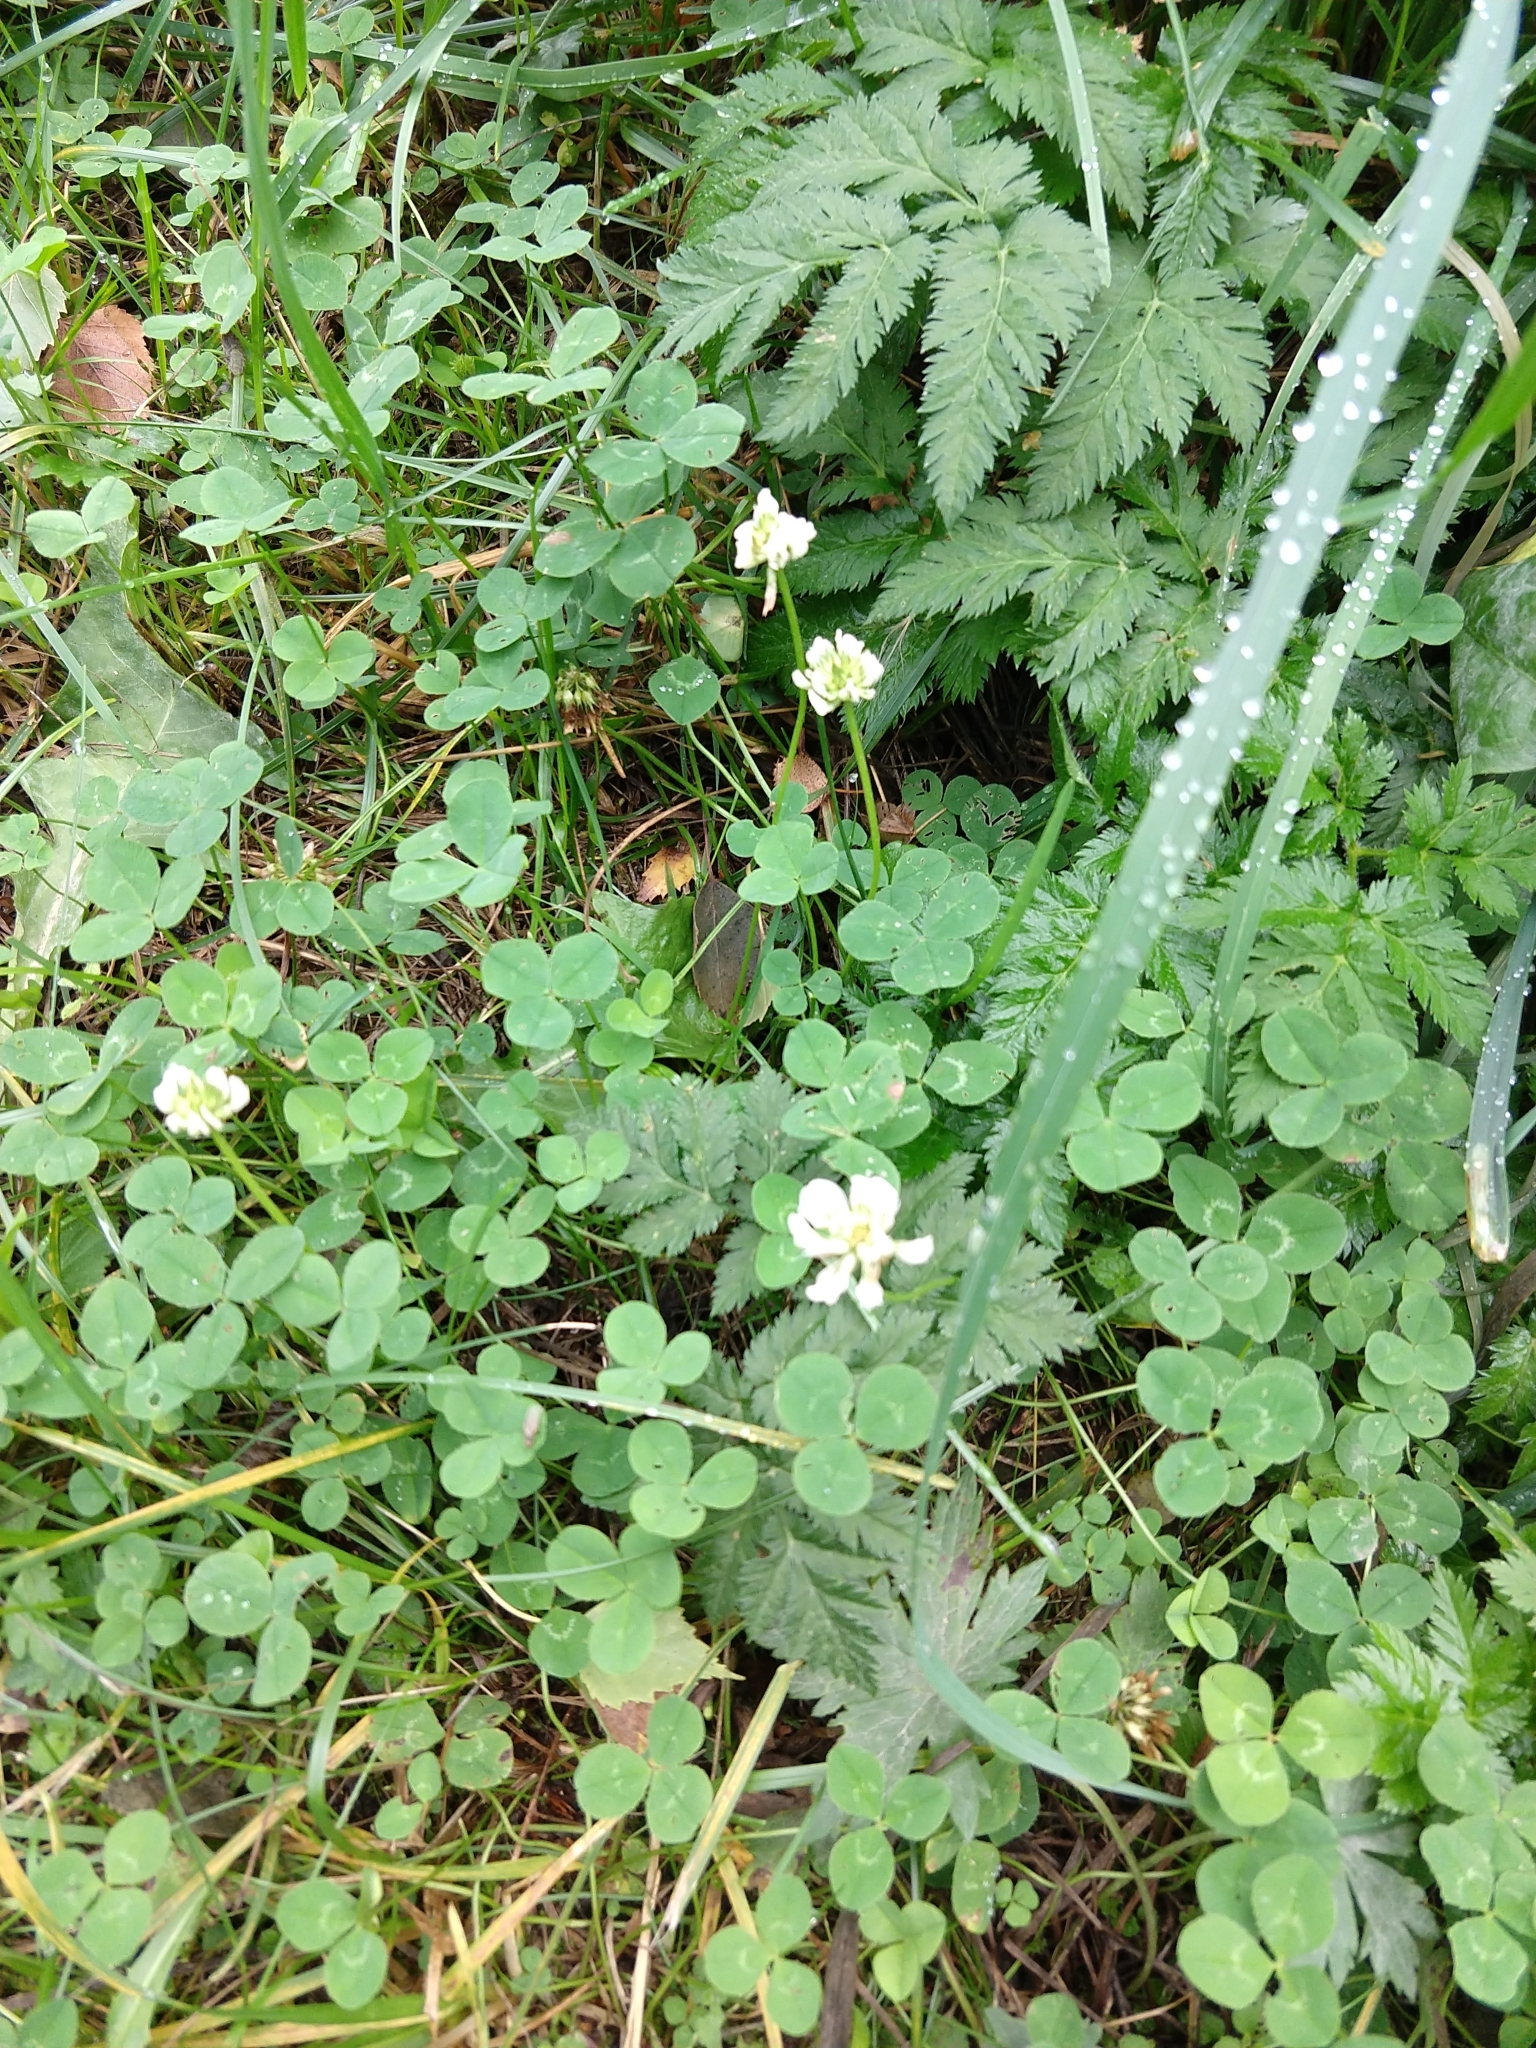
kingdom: Plantae
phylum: Tracheophyta
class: Magnoliopsida
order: Fabales
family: Fabaceae
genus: Trifolium
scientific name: Trifolium repens
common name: White clover
